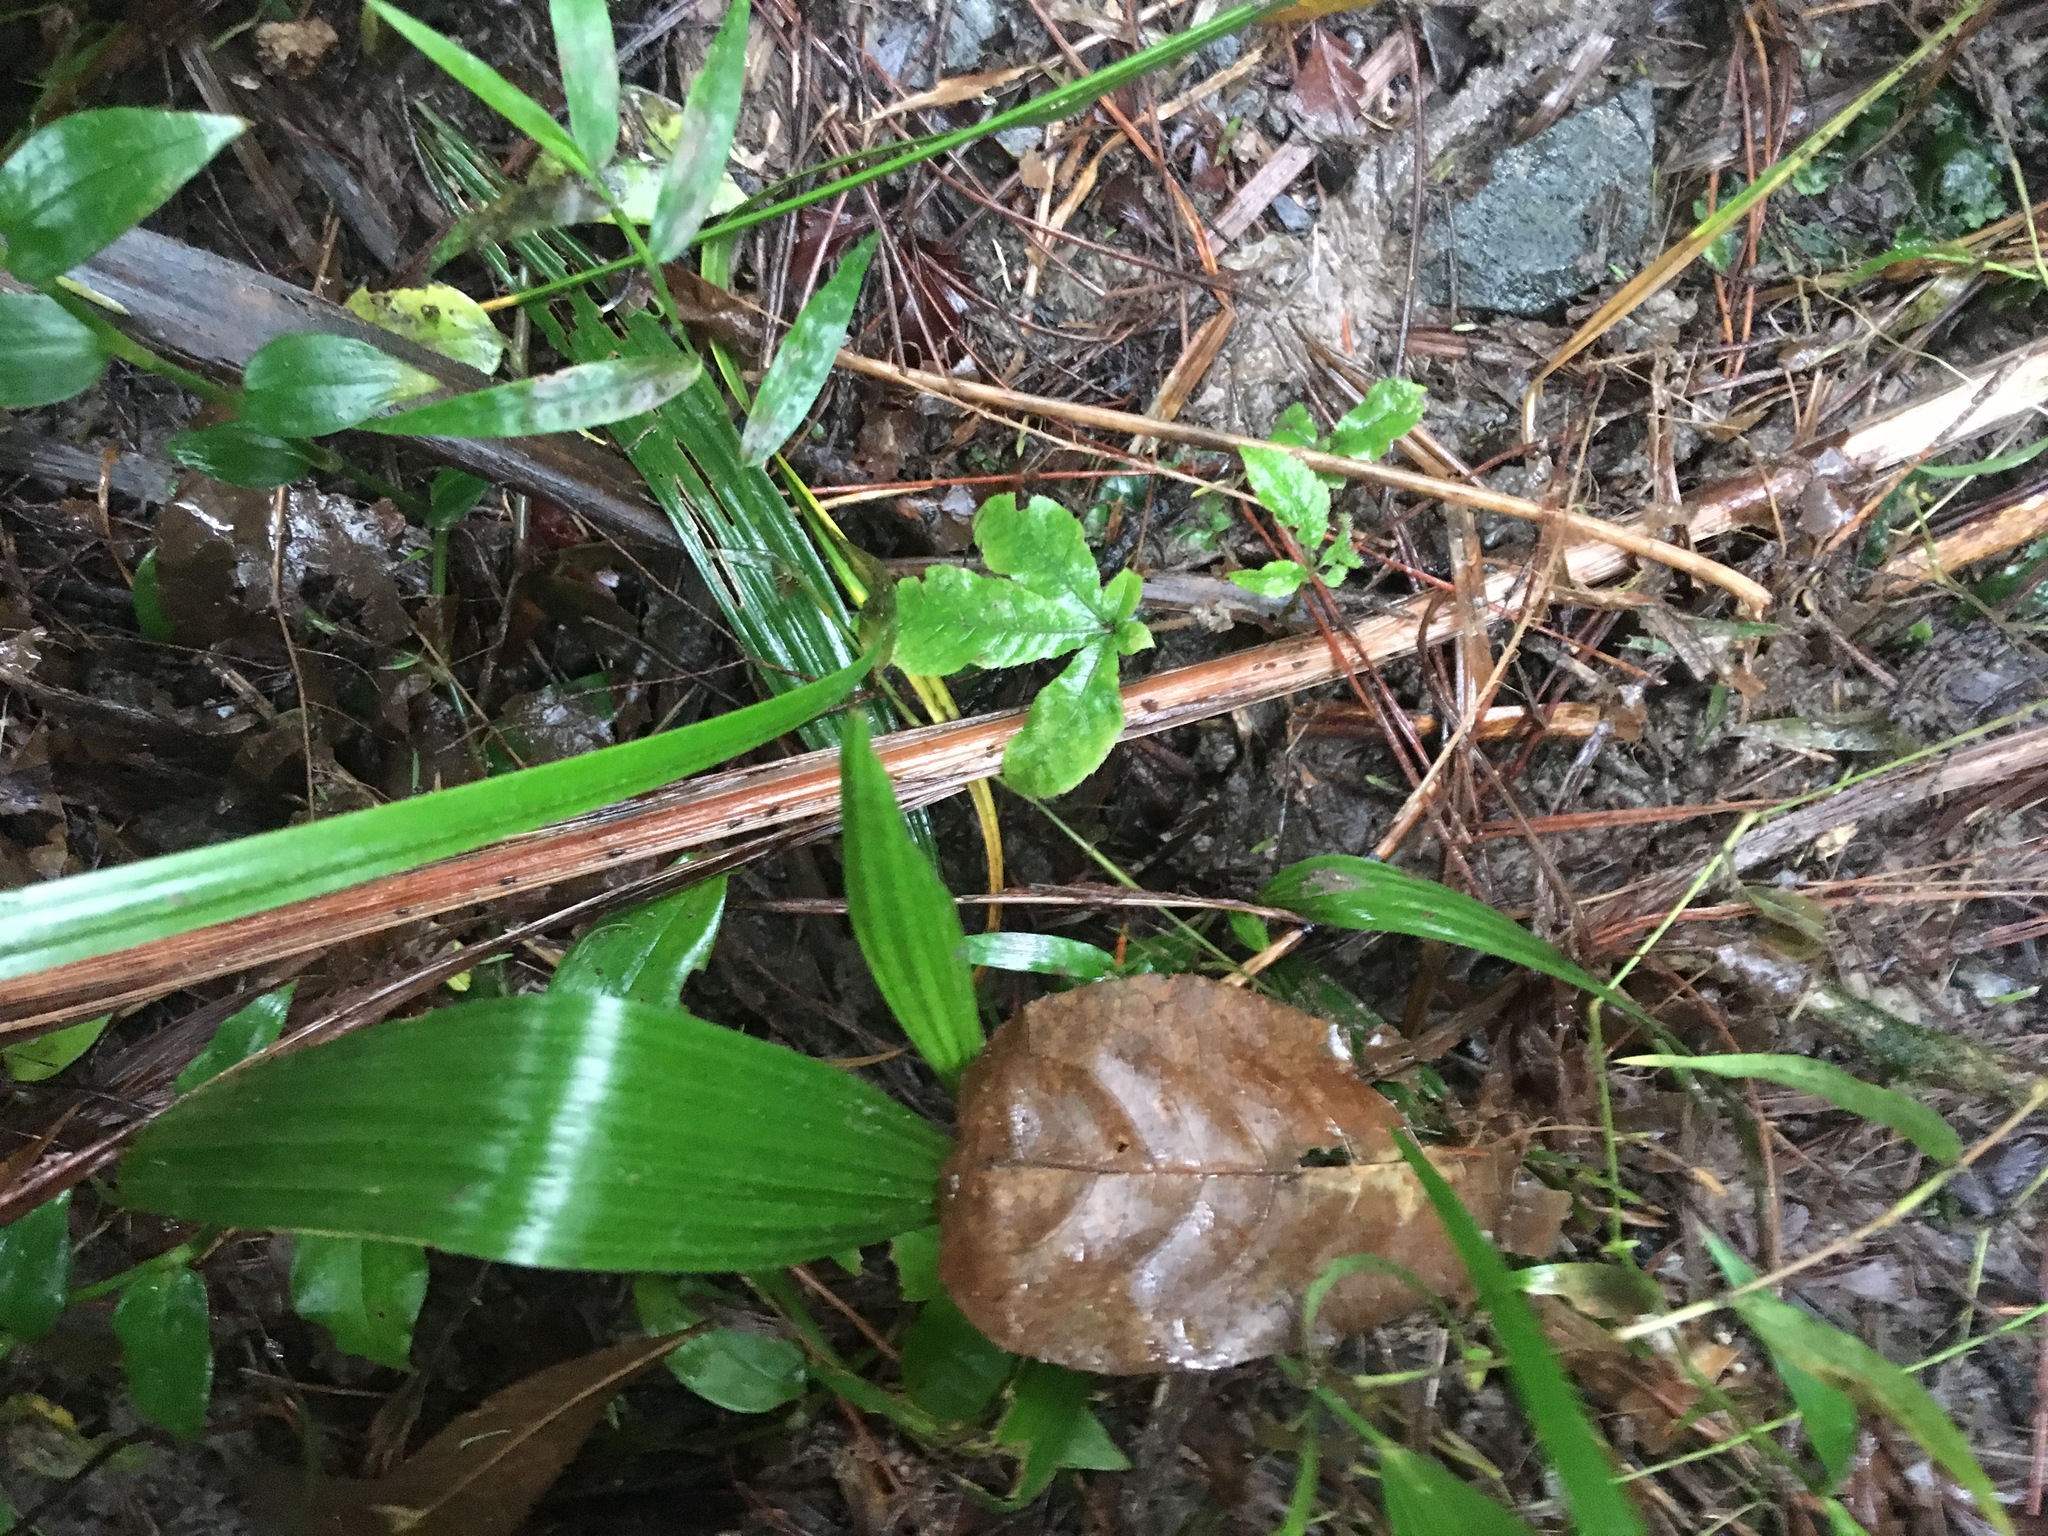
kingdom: Plantae
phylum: Tracheophyta
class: Liliopsida
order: Arecales
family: Arecaceae
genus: Phoenix
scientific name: Phoenix canariensis
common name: Canary island date palm
